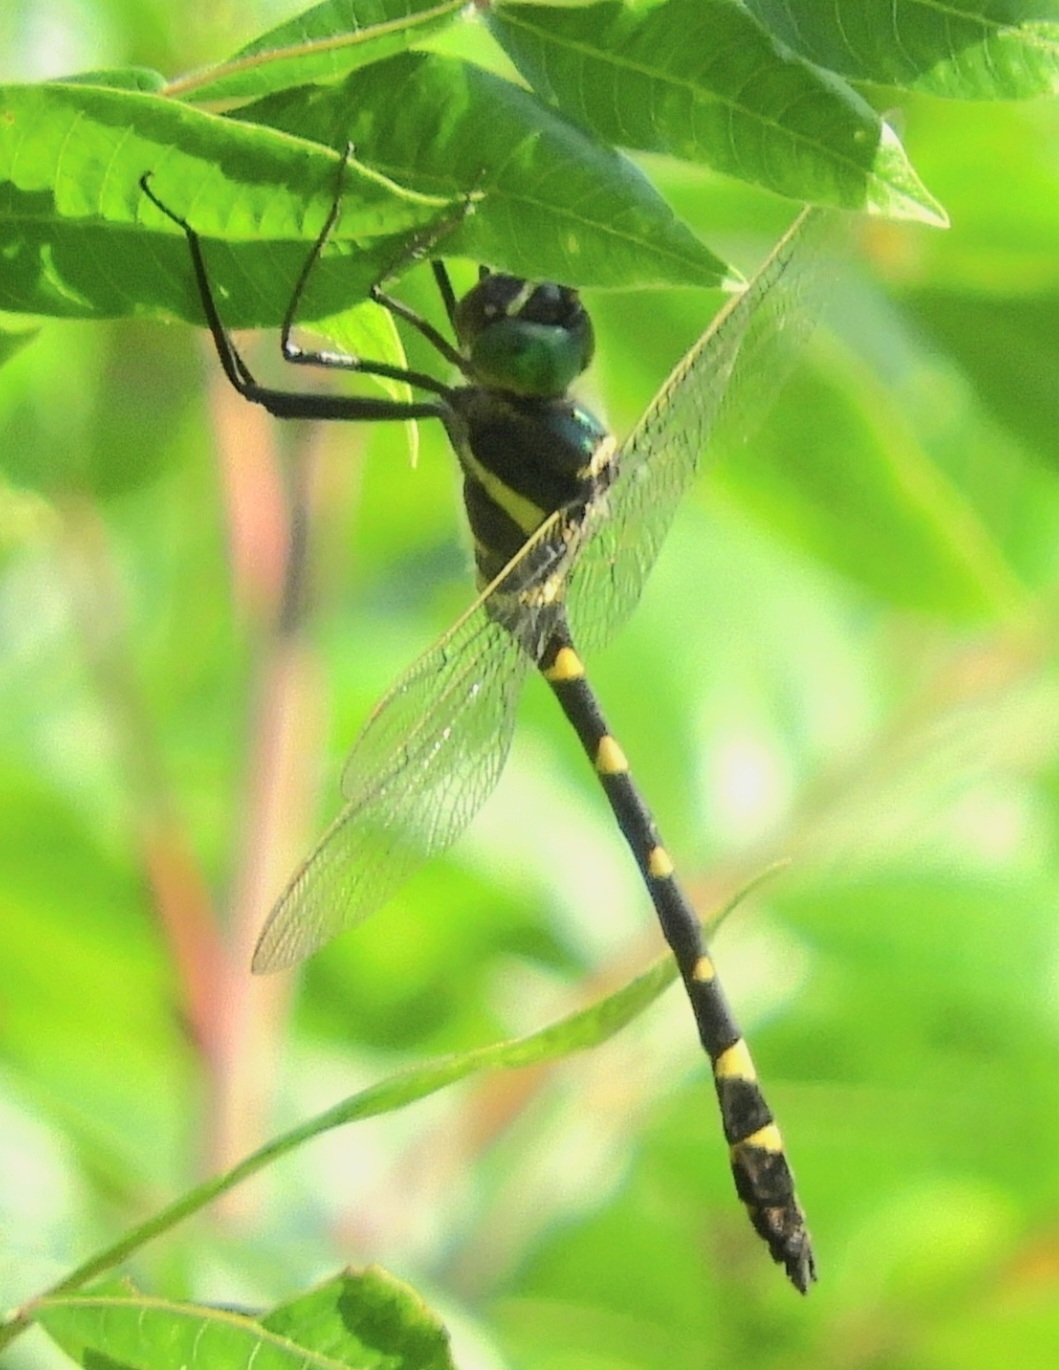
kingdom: Animalia
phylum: Arthropoda
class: Insecta
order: Odonata
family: Macromiidae
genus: Macromia
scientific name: Macromia illinoiensis
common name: Swift river cruiser
